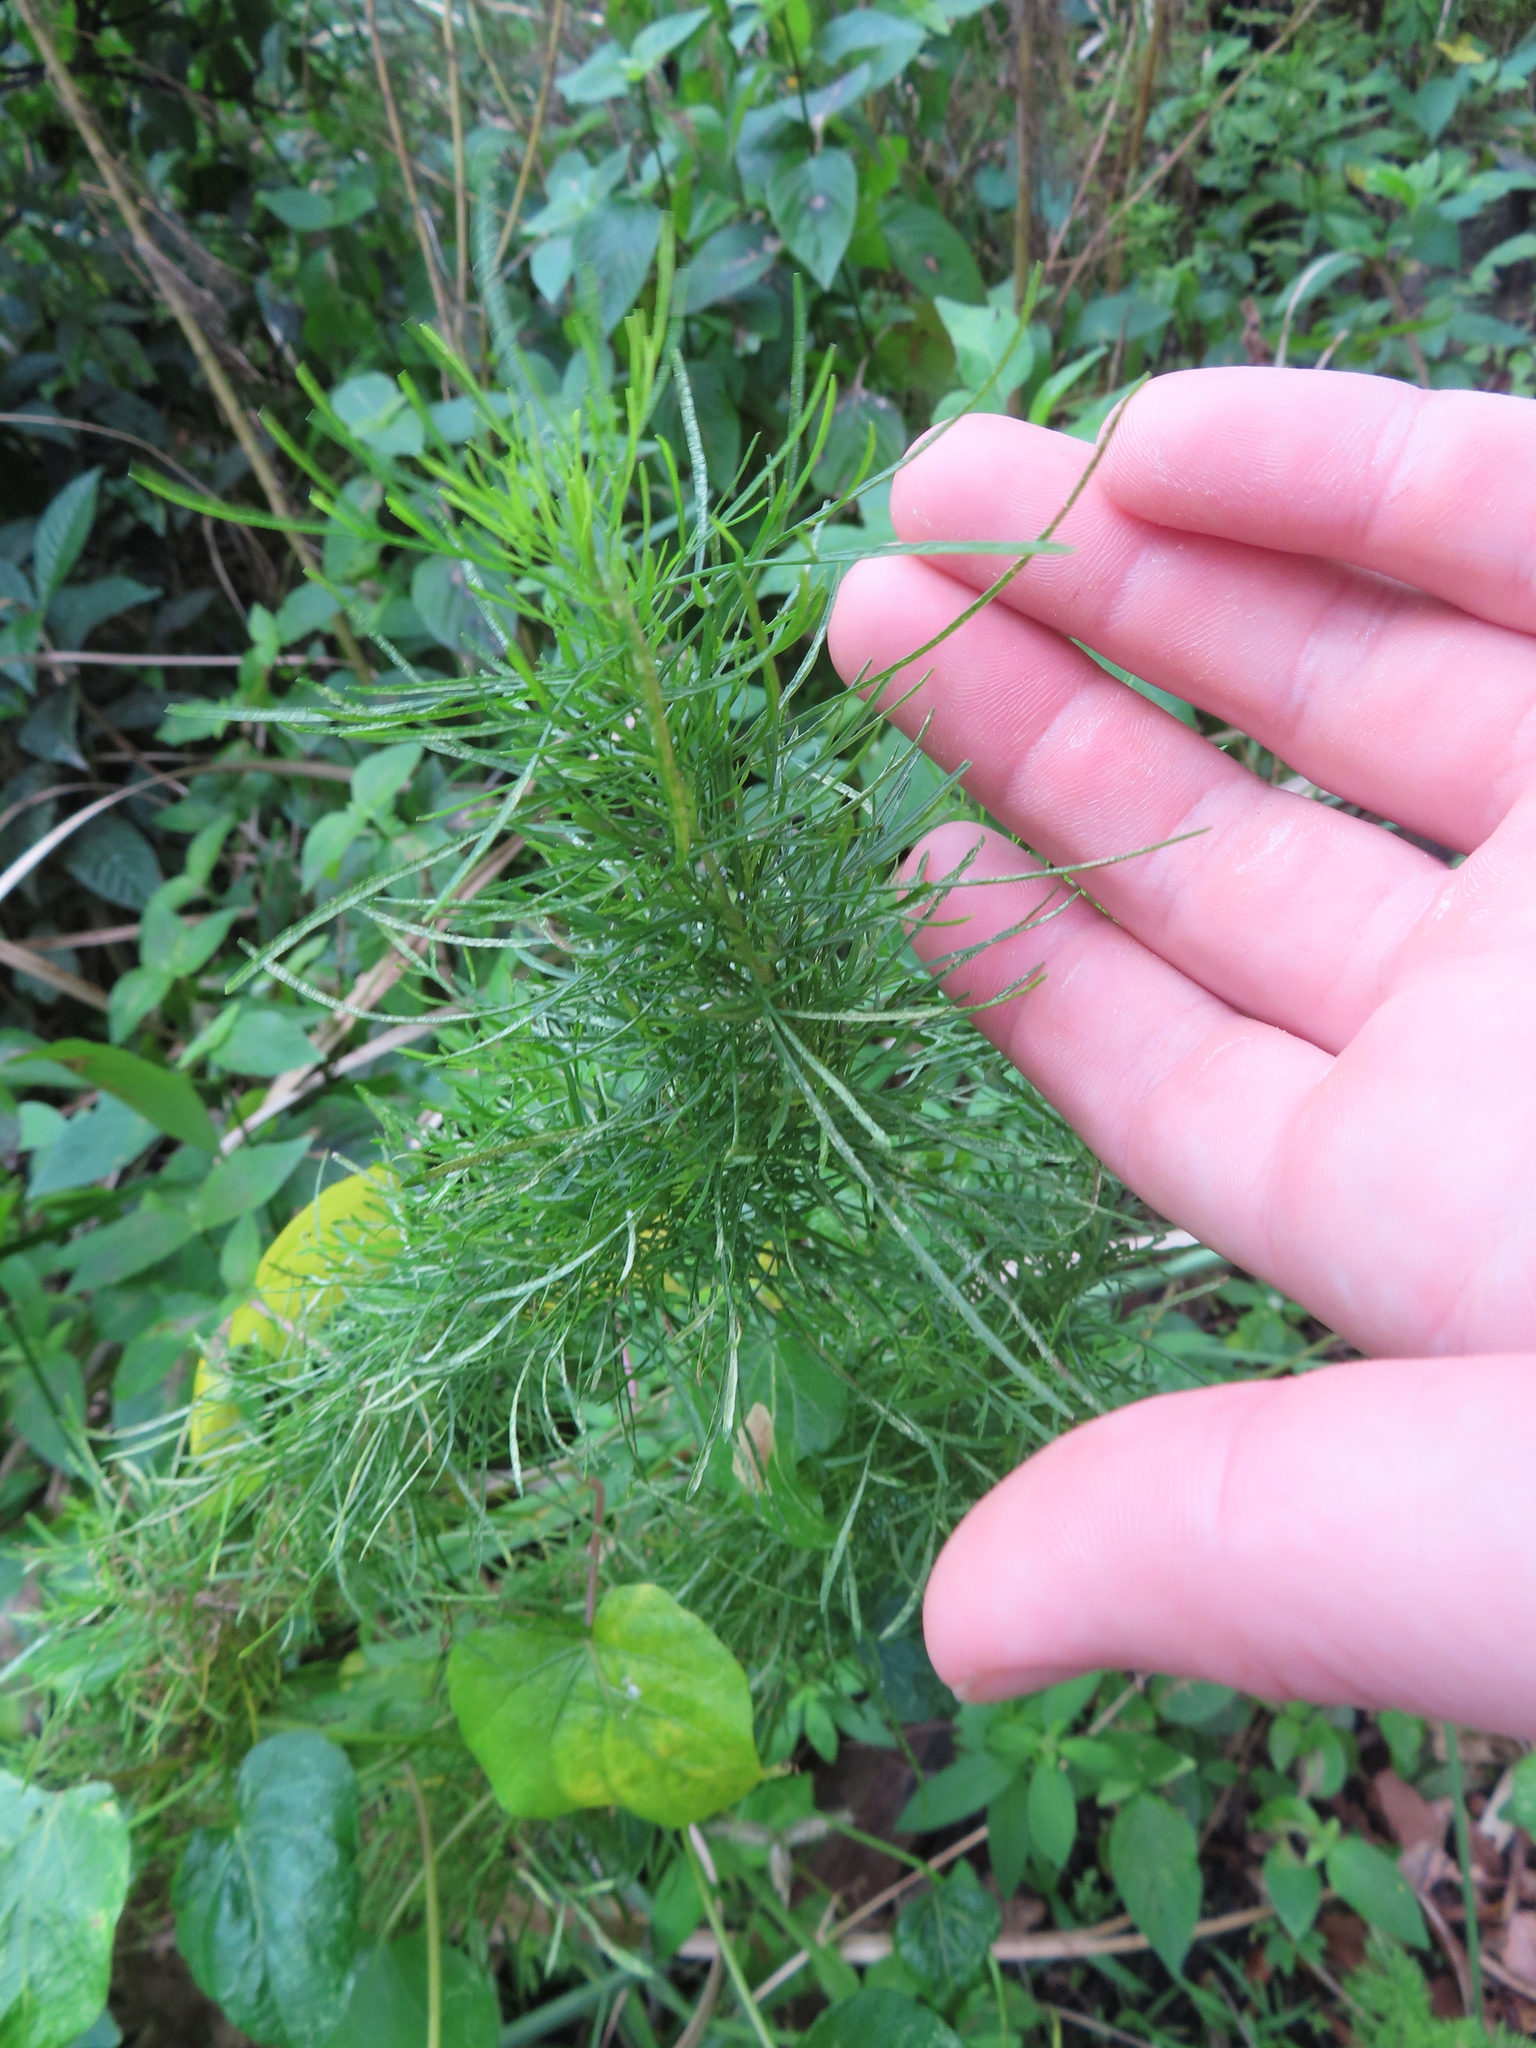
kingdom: Plantae
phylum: Tracheophyta
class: Magnoliopsida
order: Asterales
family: Asteraceae
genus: Eupatorium
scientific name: Eupatorium capillifolium
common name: Dog-fennel
